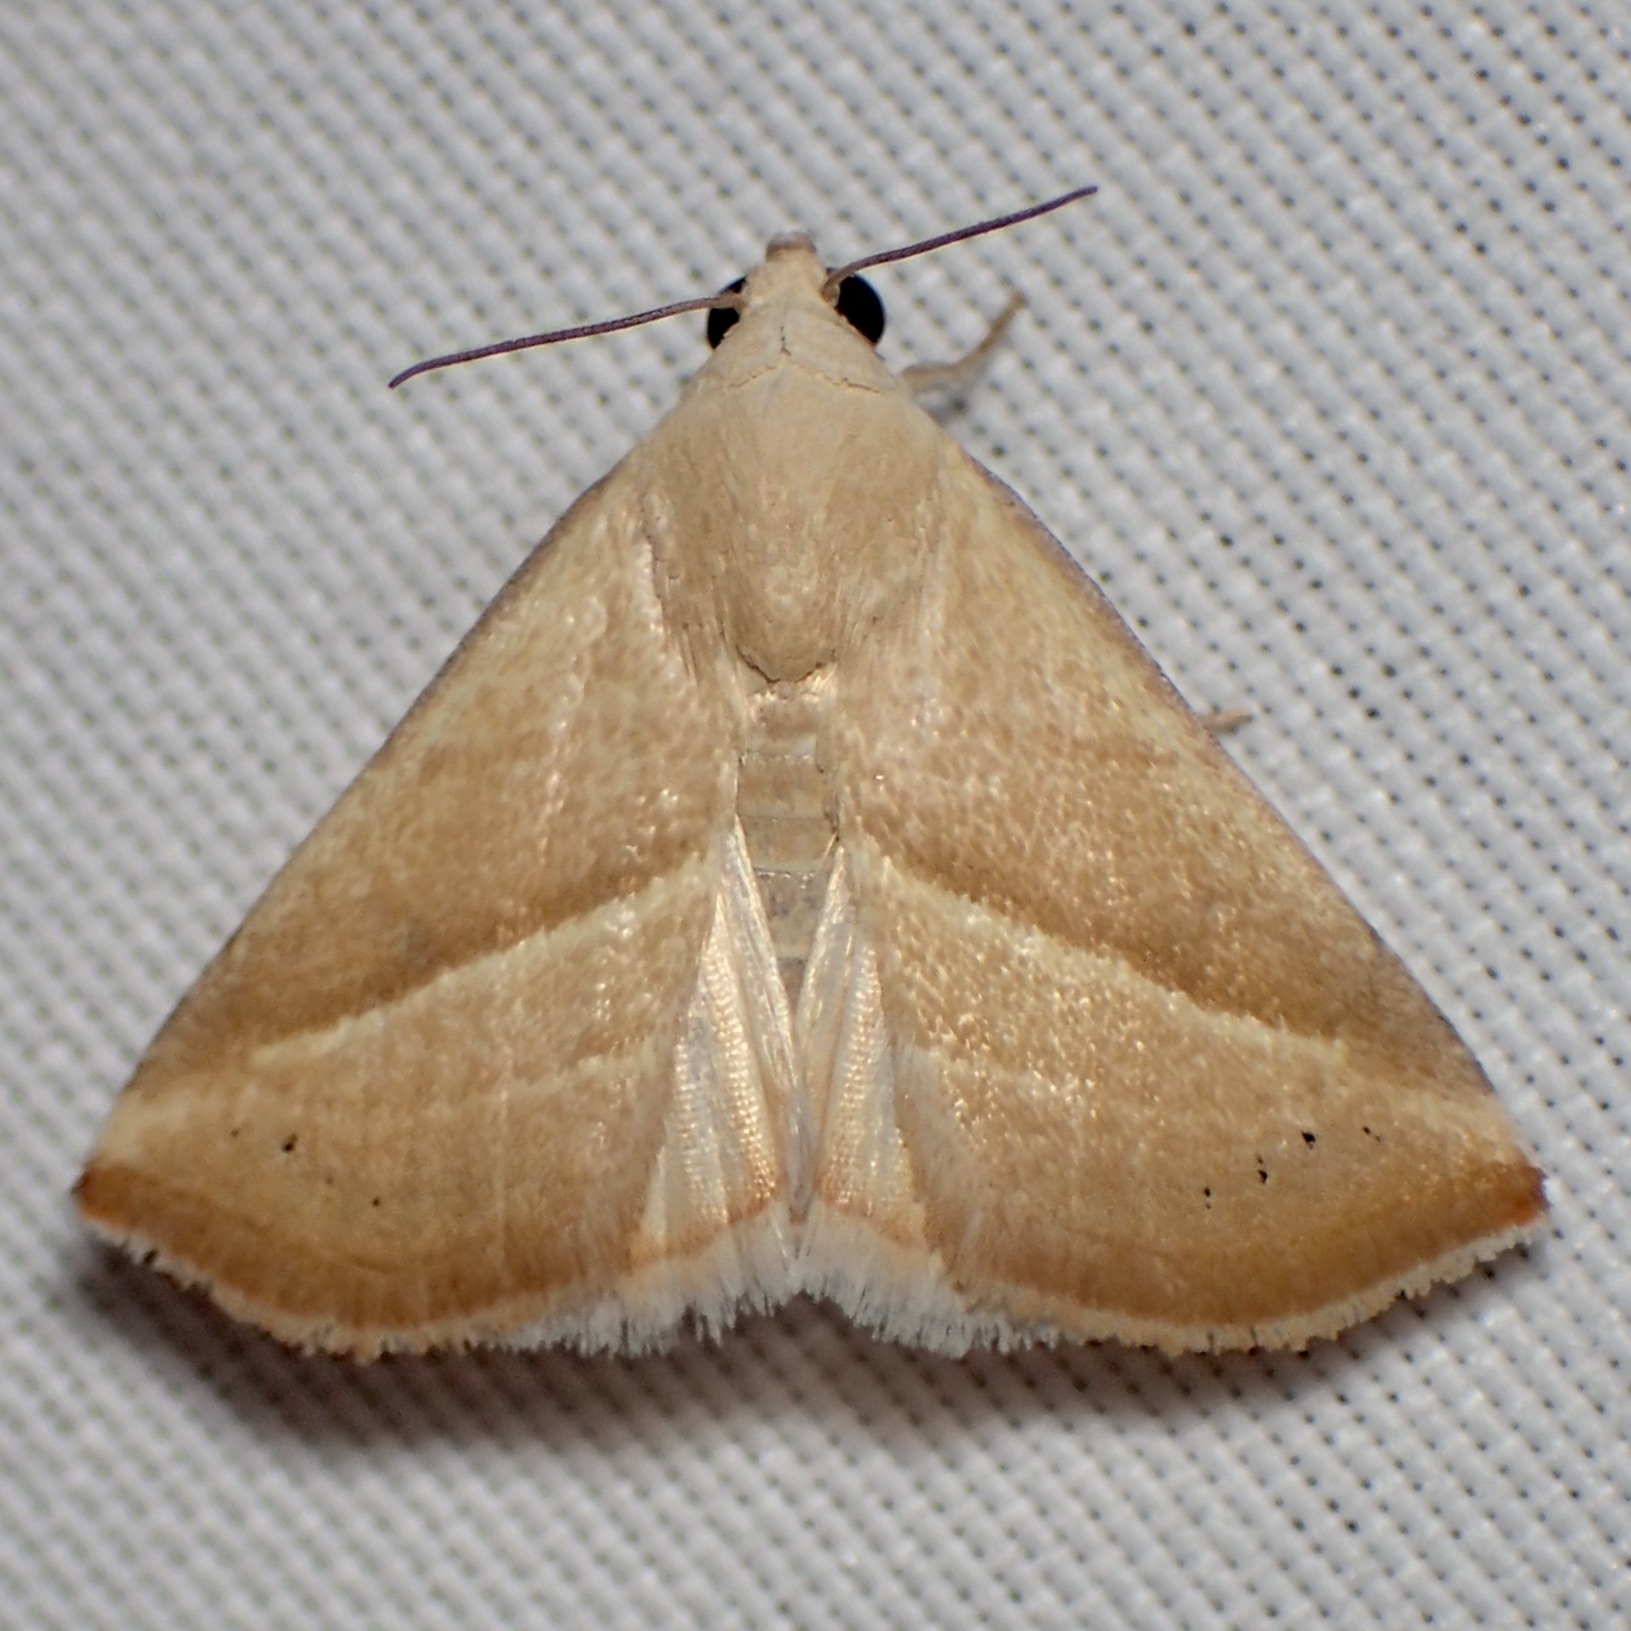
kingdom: Animalia
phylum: Arthropoda
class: Insecta
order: Lepidoptera
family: Noctuidae
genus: Eublemma
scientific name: Eublemma recta
